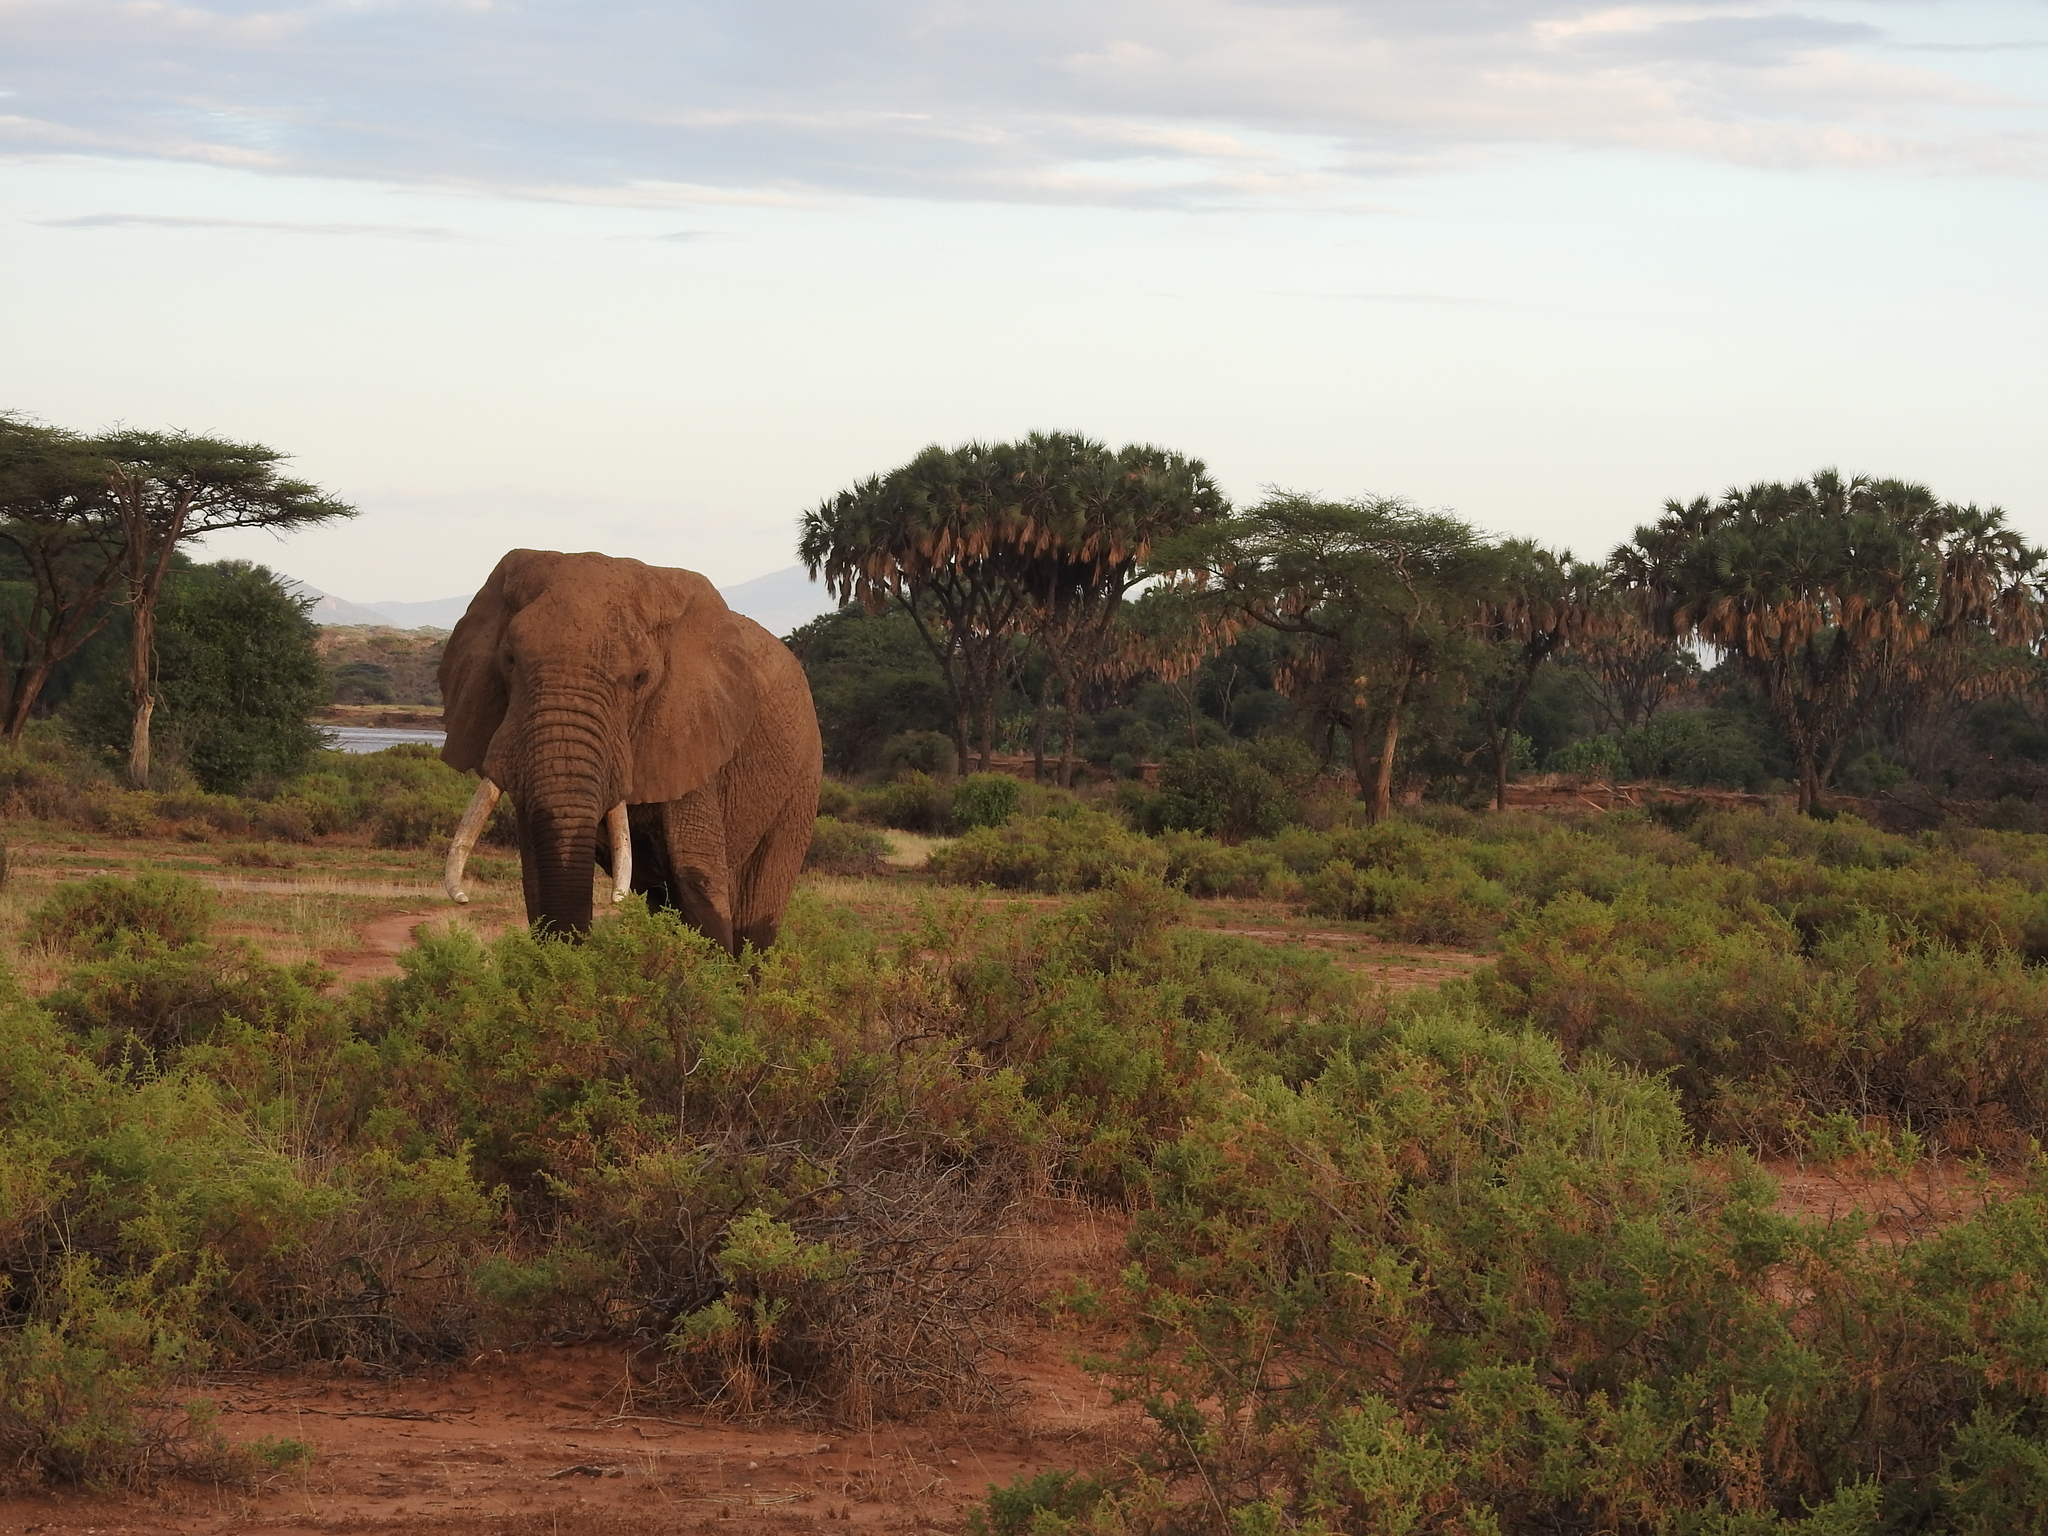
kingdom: Animalia
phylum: Chordata
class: Mammalia
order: Proboscidea
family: Elephantidae
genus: Loxodonta
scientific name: Loxodonta africana
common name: African elephant
